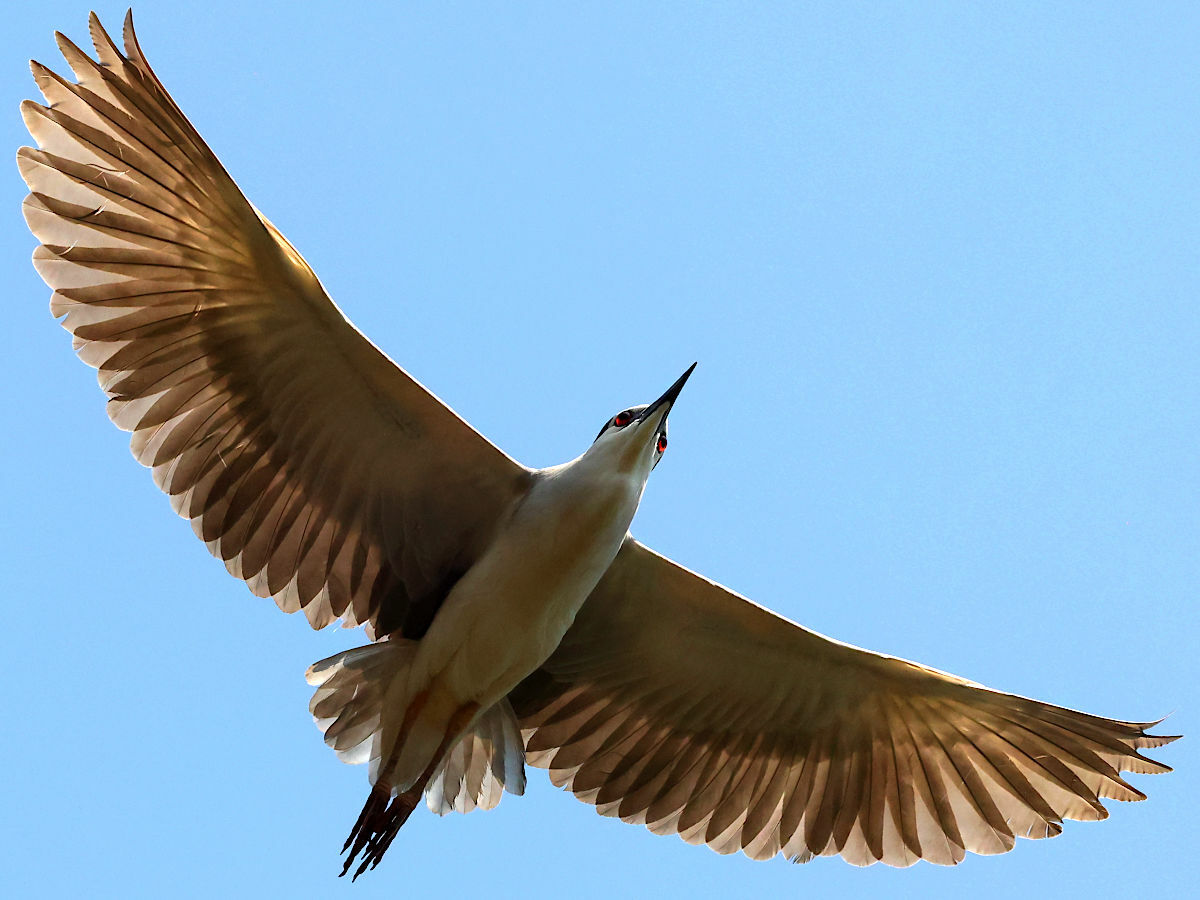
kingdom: Animalia
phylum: Chordata
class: Aves
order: Pelecaniformes
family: Ardeidae
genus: Nycticorax
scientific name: Nycticorax nycticorax
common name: Black-crowned night heron
